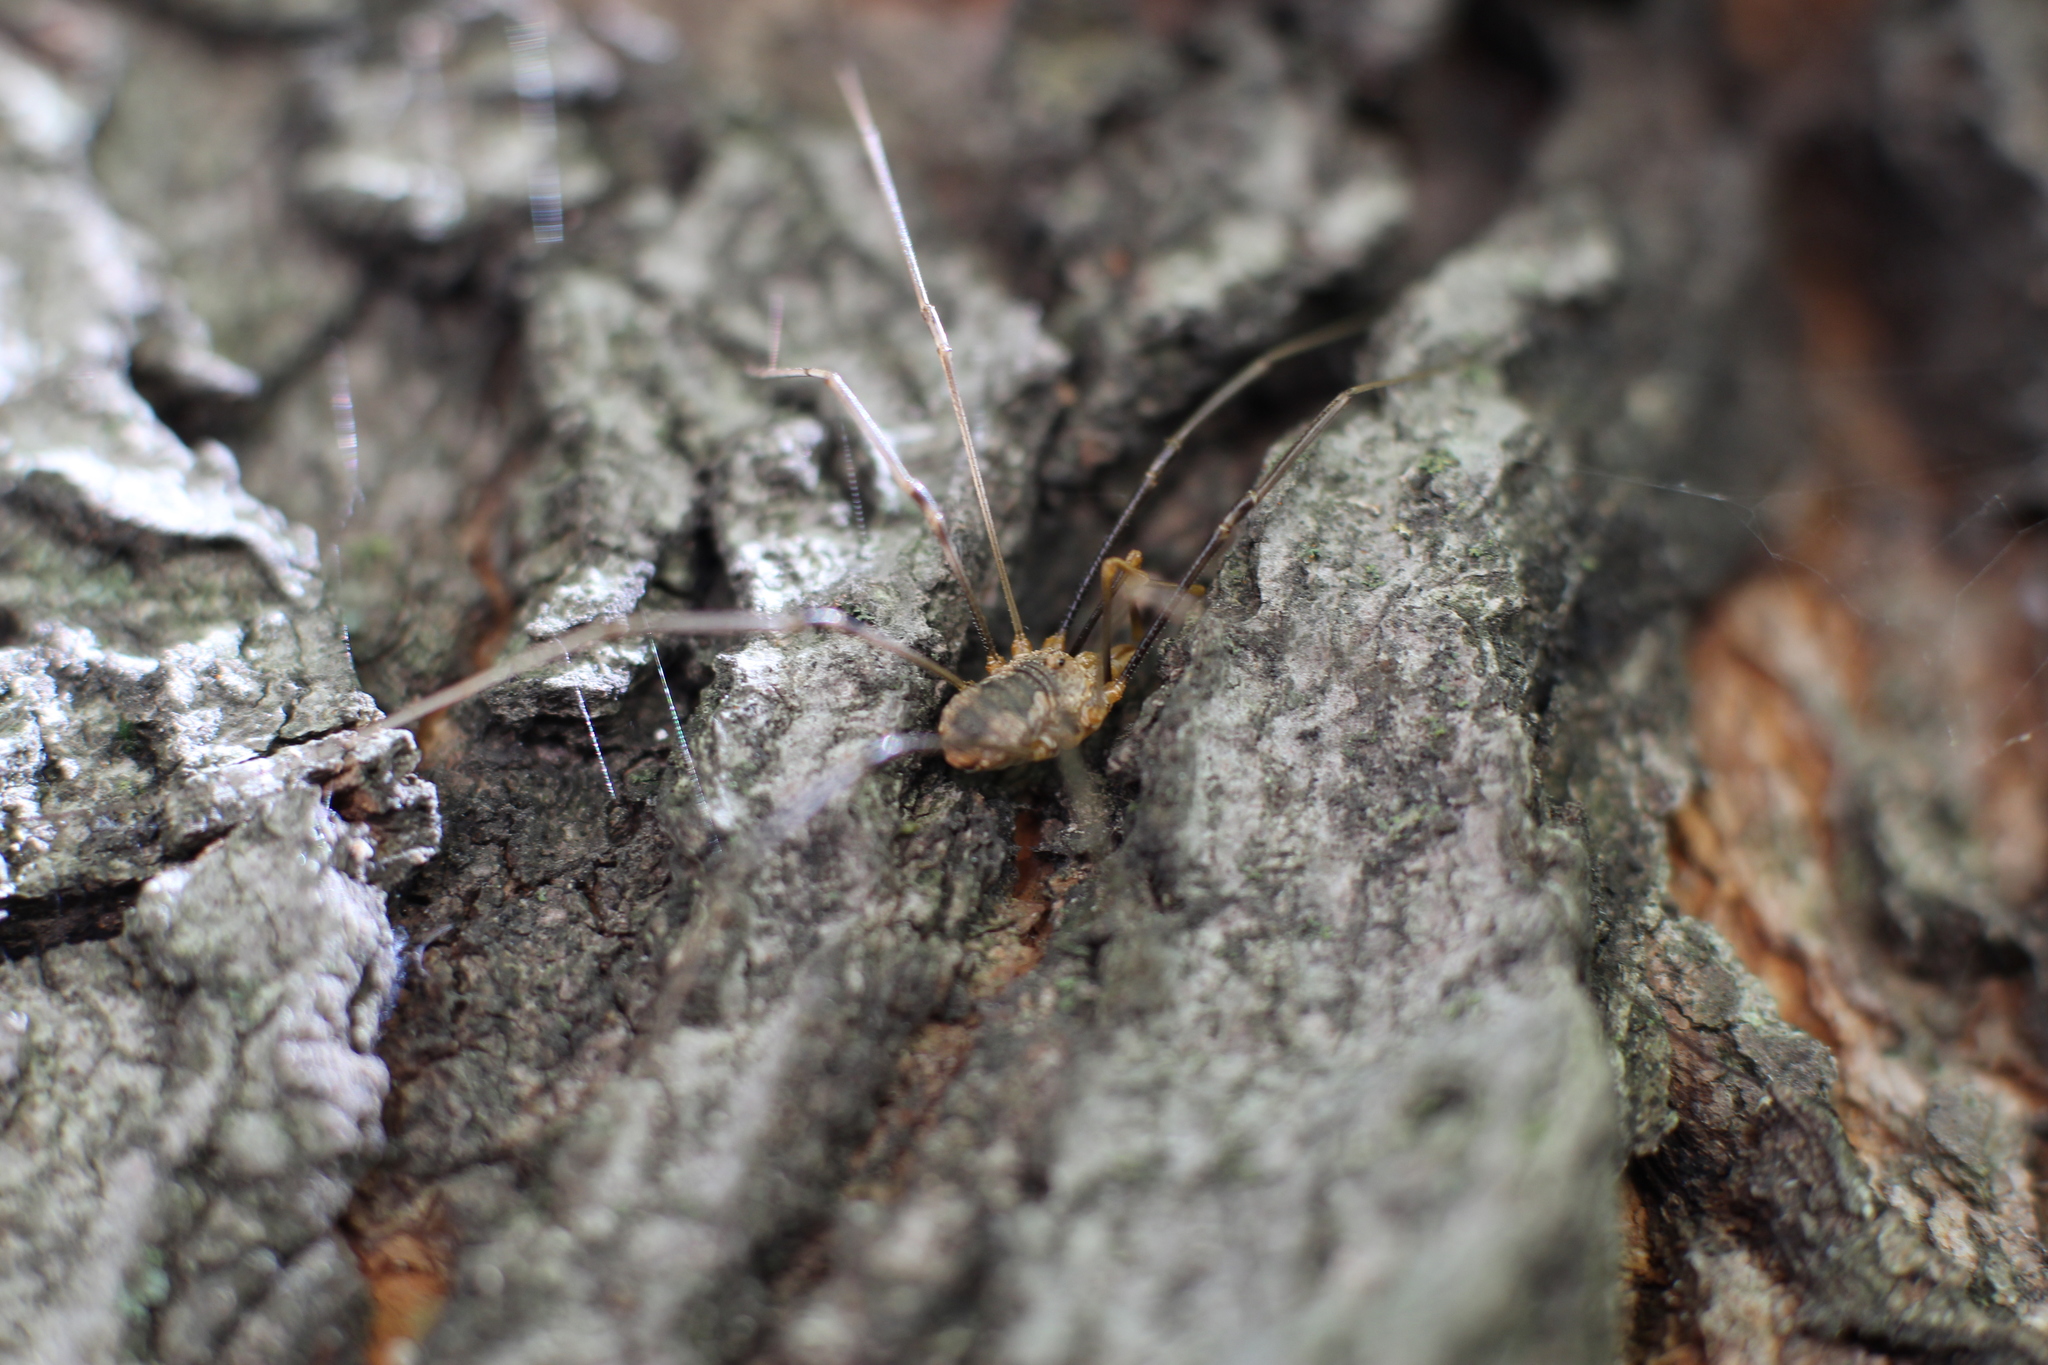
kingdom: Animalia
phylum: Arthropoda
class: Arachnida
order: Opiliones
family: Phalangiidae
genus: Phalangium
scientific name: Phalangium opilio
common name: Daddy longleg
